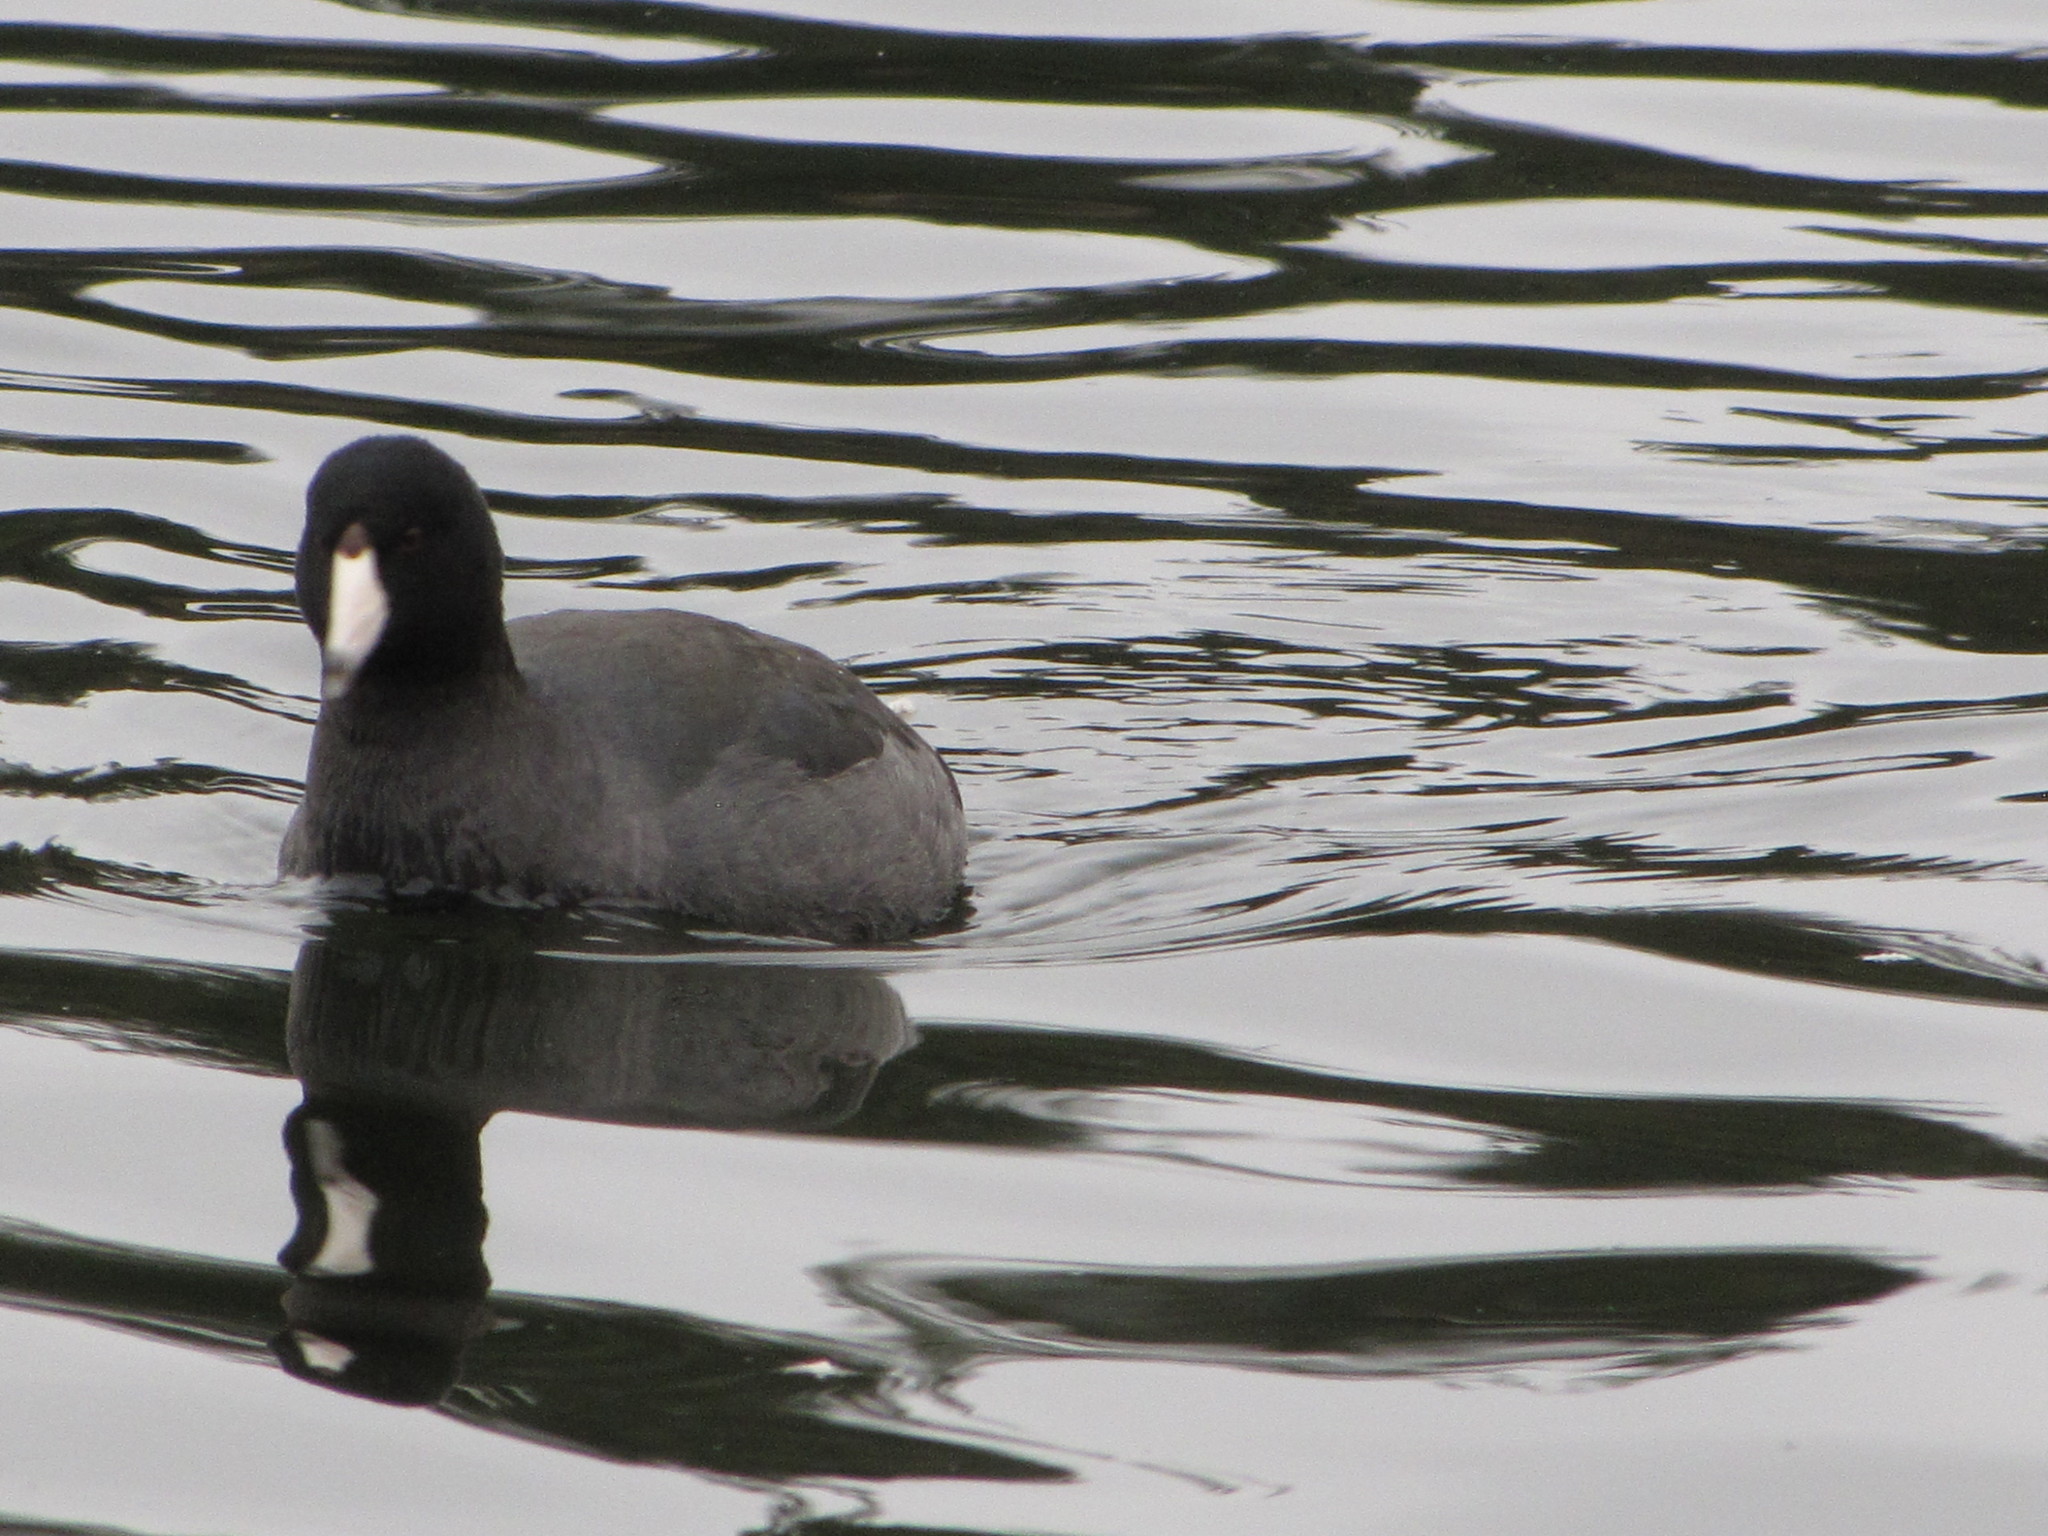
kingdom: Animalia
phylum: Chordata
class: Aves
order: Gruiformes
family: Rallidae
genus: Fulica
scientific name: Fulica americana
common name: American coot
